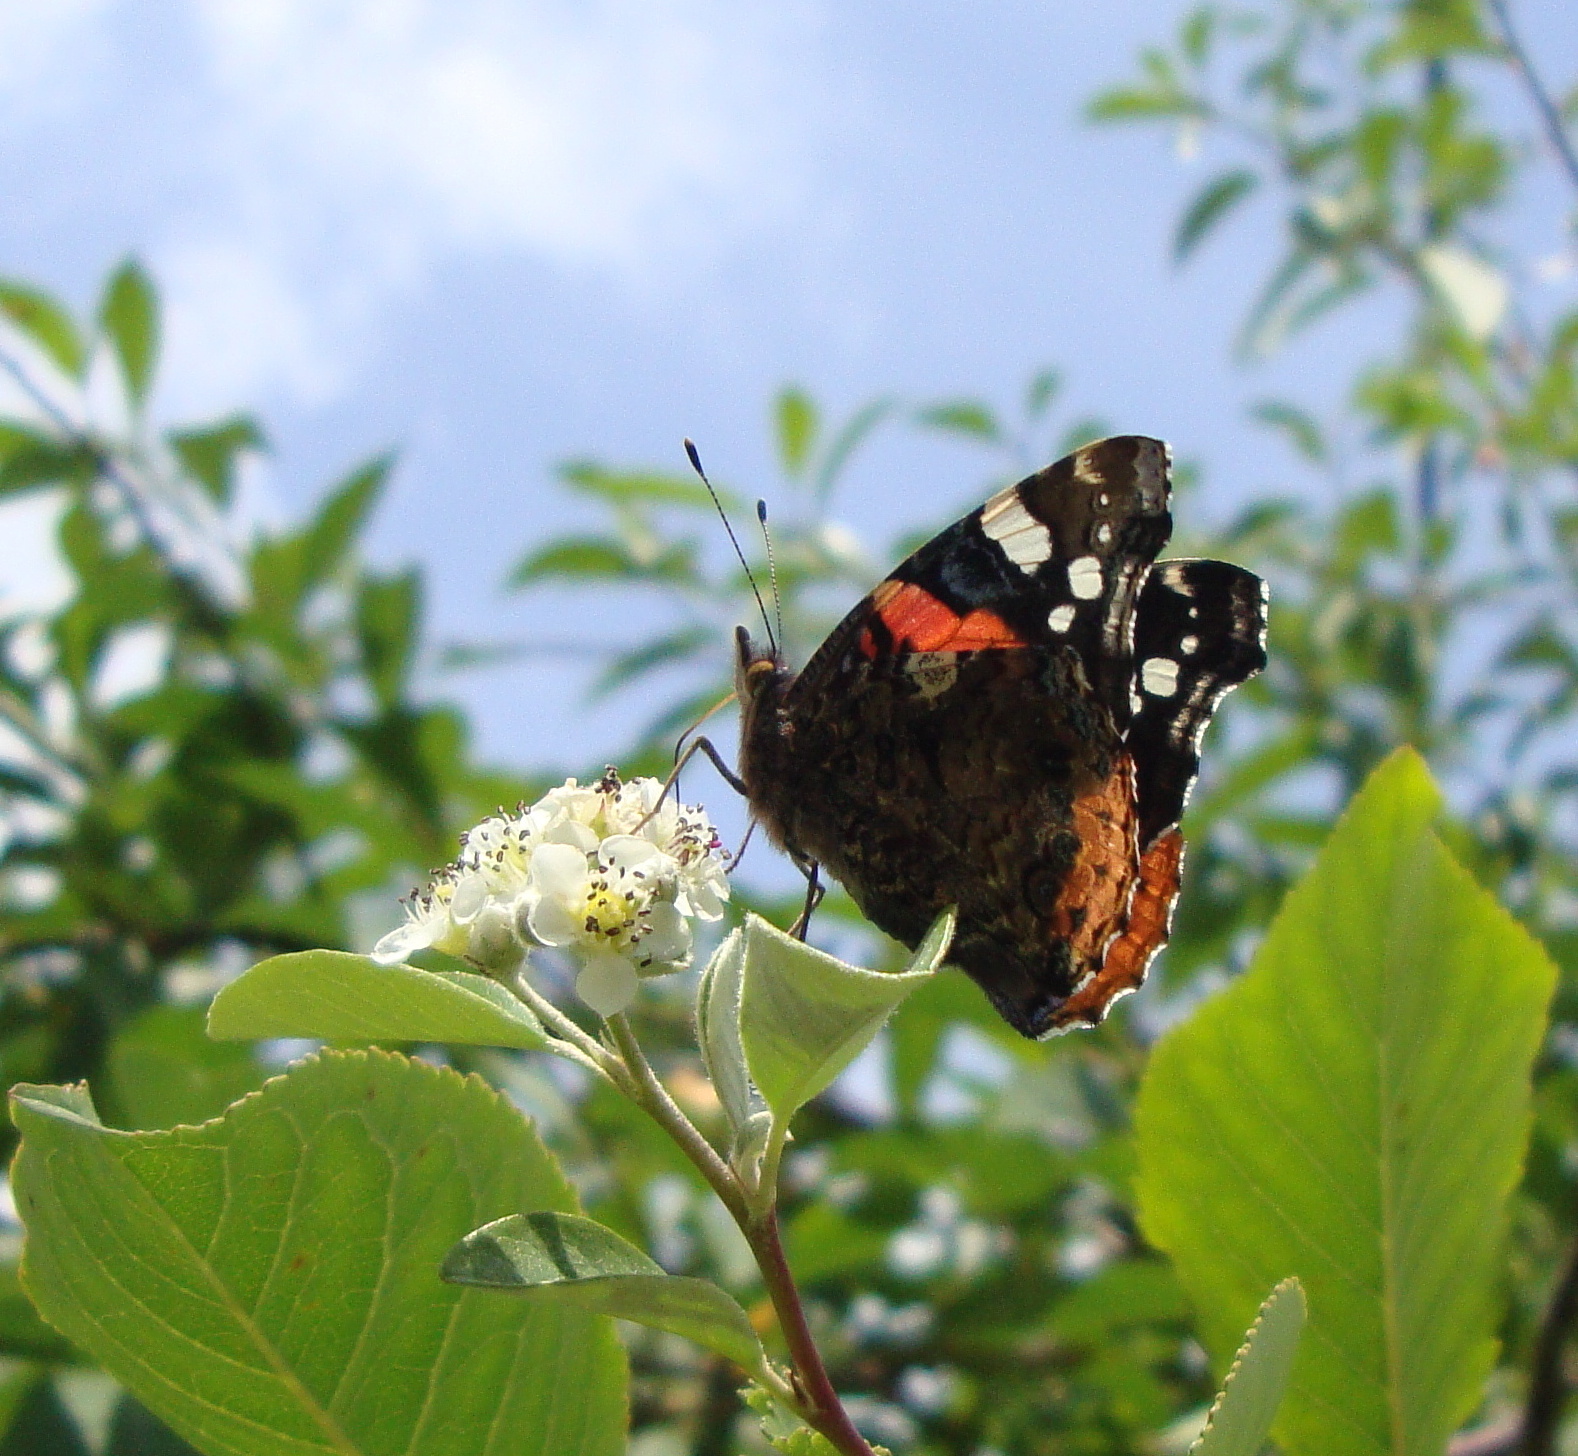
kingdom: Animalia
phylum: Arthropoda
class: Insecta
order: Lepidoptera
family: Nymphalidae
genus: Vanessa
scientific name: Vanessa atalanta
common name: Red admiral
